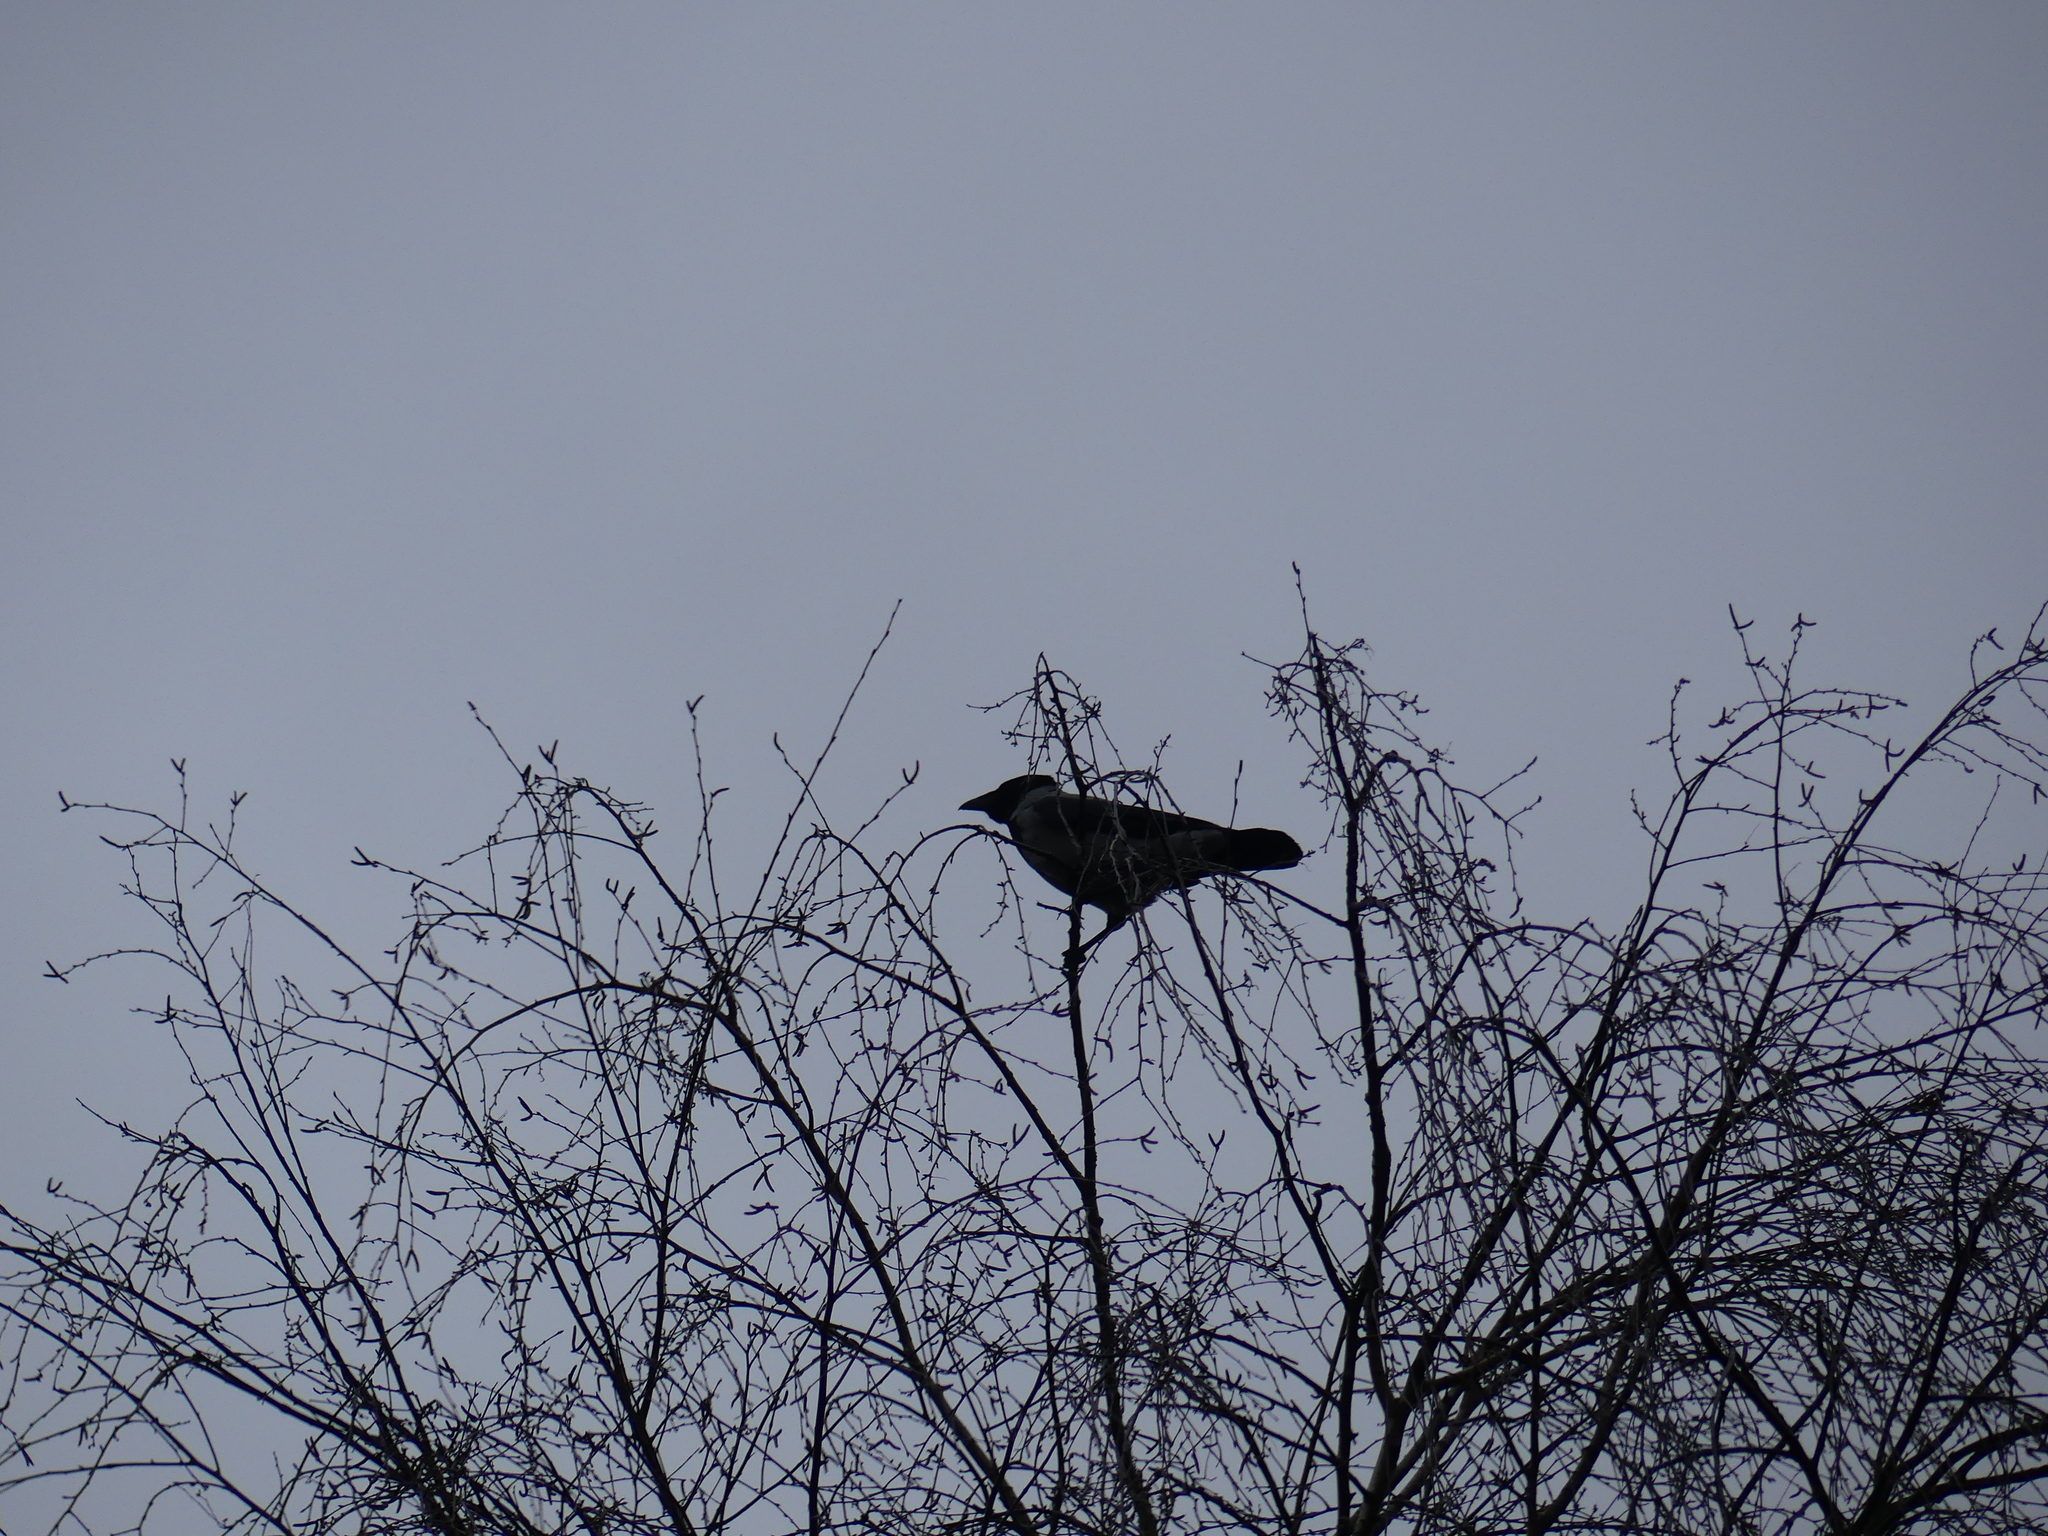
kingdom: Animalia
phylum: Chordata
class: Aves
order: Passeriformes
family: Corvidae
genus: Corvus
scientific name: Corvus cornix
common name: Hooded crow
